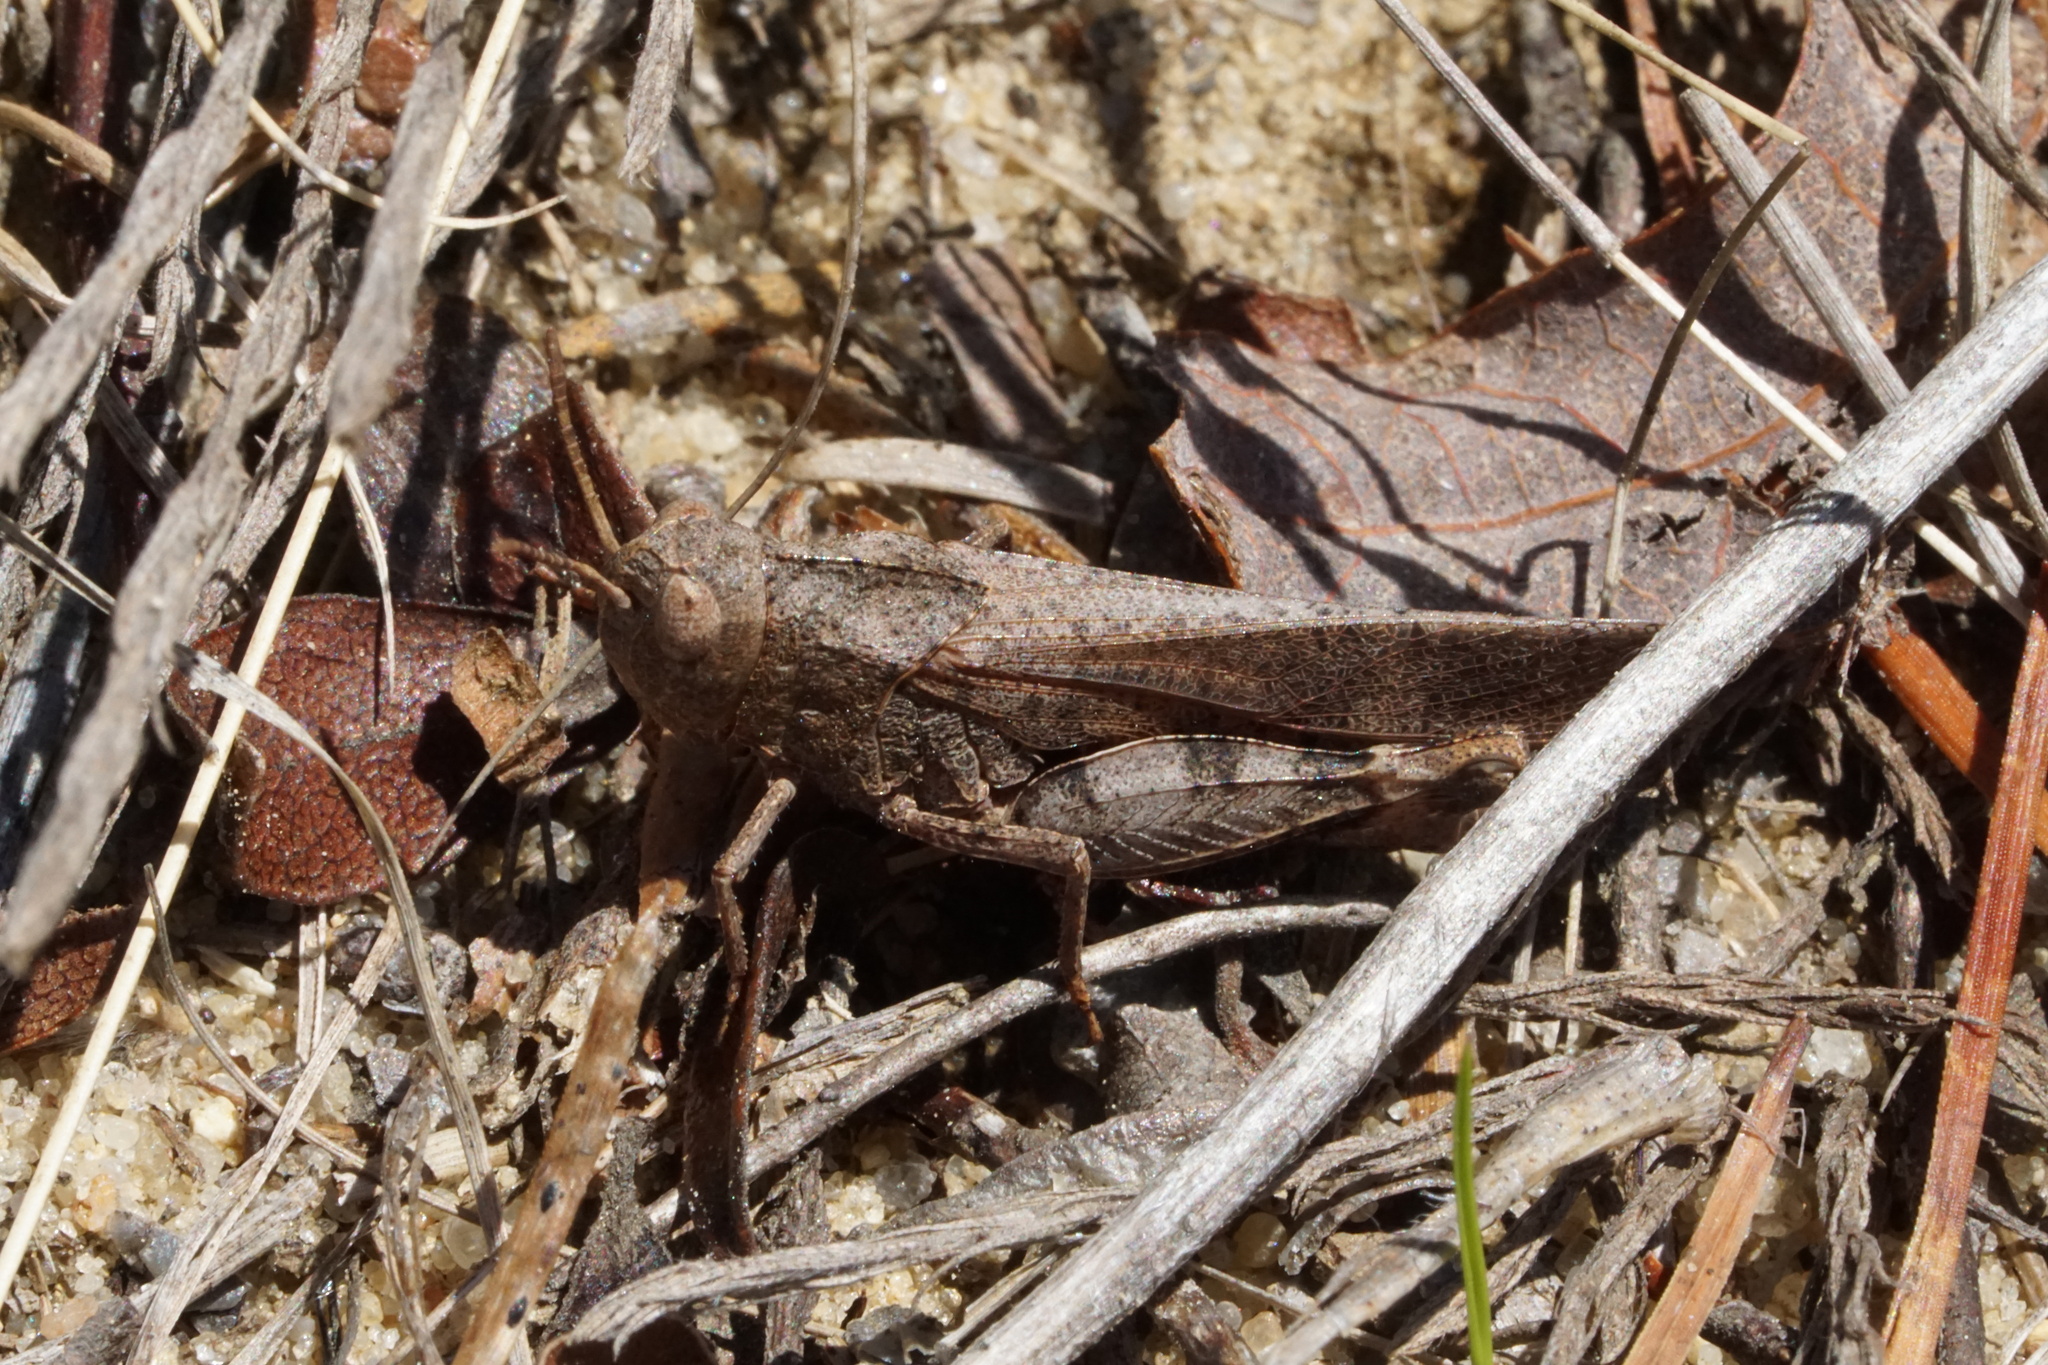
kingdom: Animalia
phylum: Arthropoda
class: Insecta
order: Orthoptera
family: Acrididae
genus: Arphia
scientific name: Arphia sulphurea
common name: Spring yellow-winged locust
